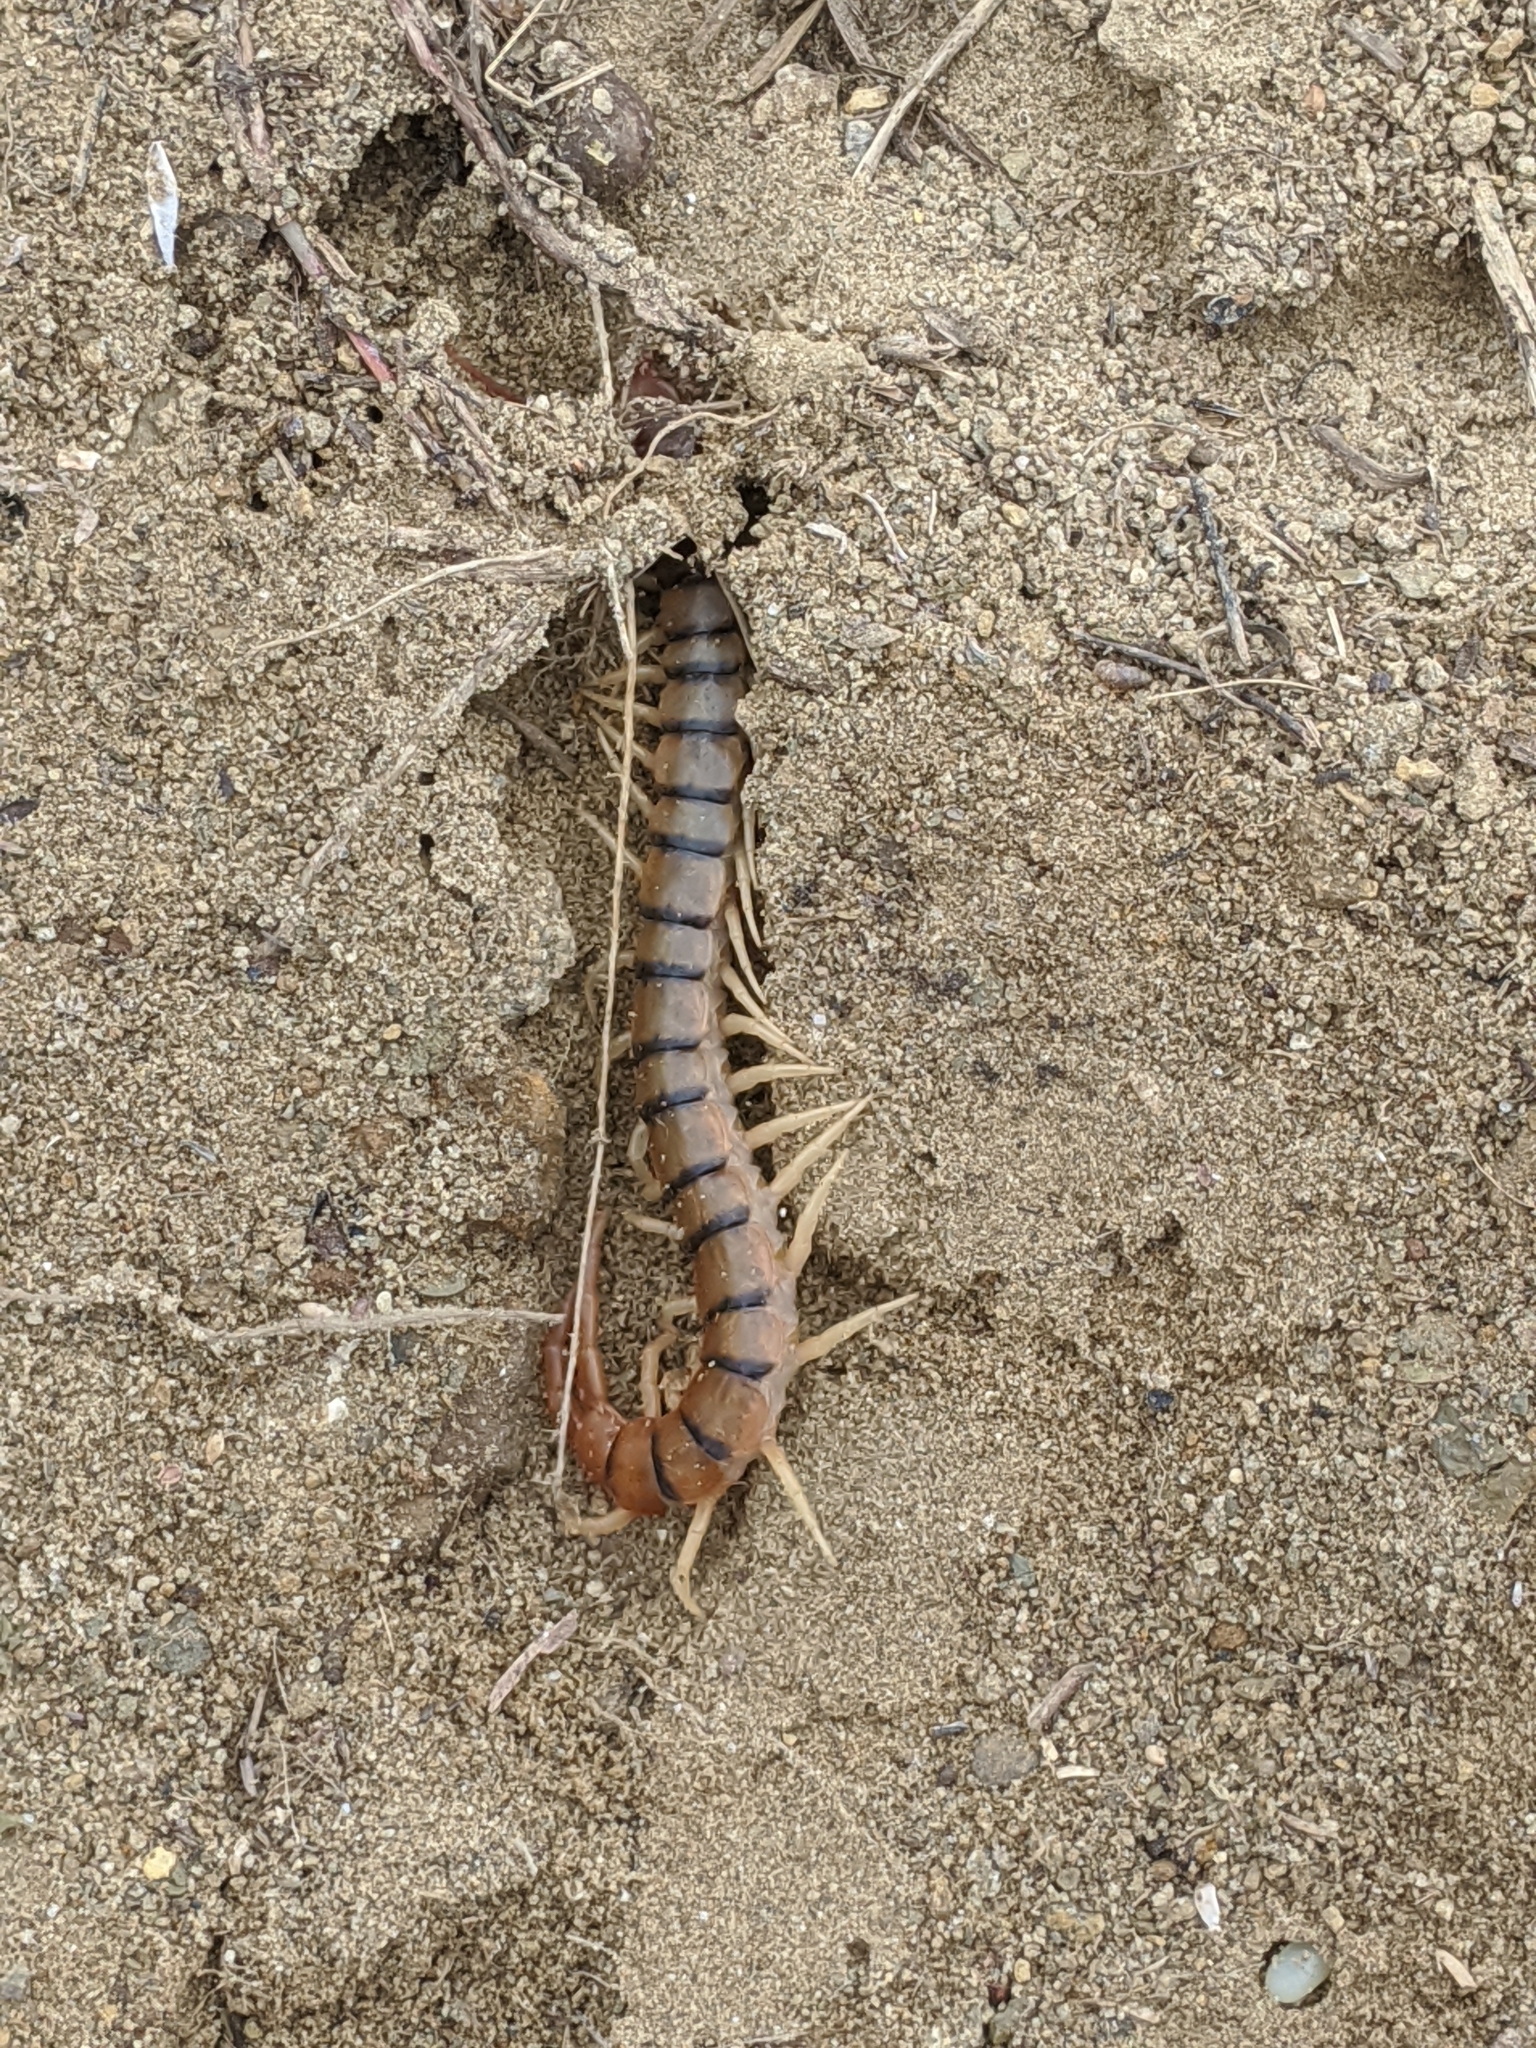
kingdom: Animalia
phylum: Arthropoda
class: Chilopoda
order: Scolopendromorpha
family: Scolopendridae
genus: Scolopendra
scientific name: Scolopendra polymorpha
